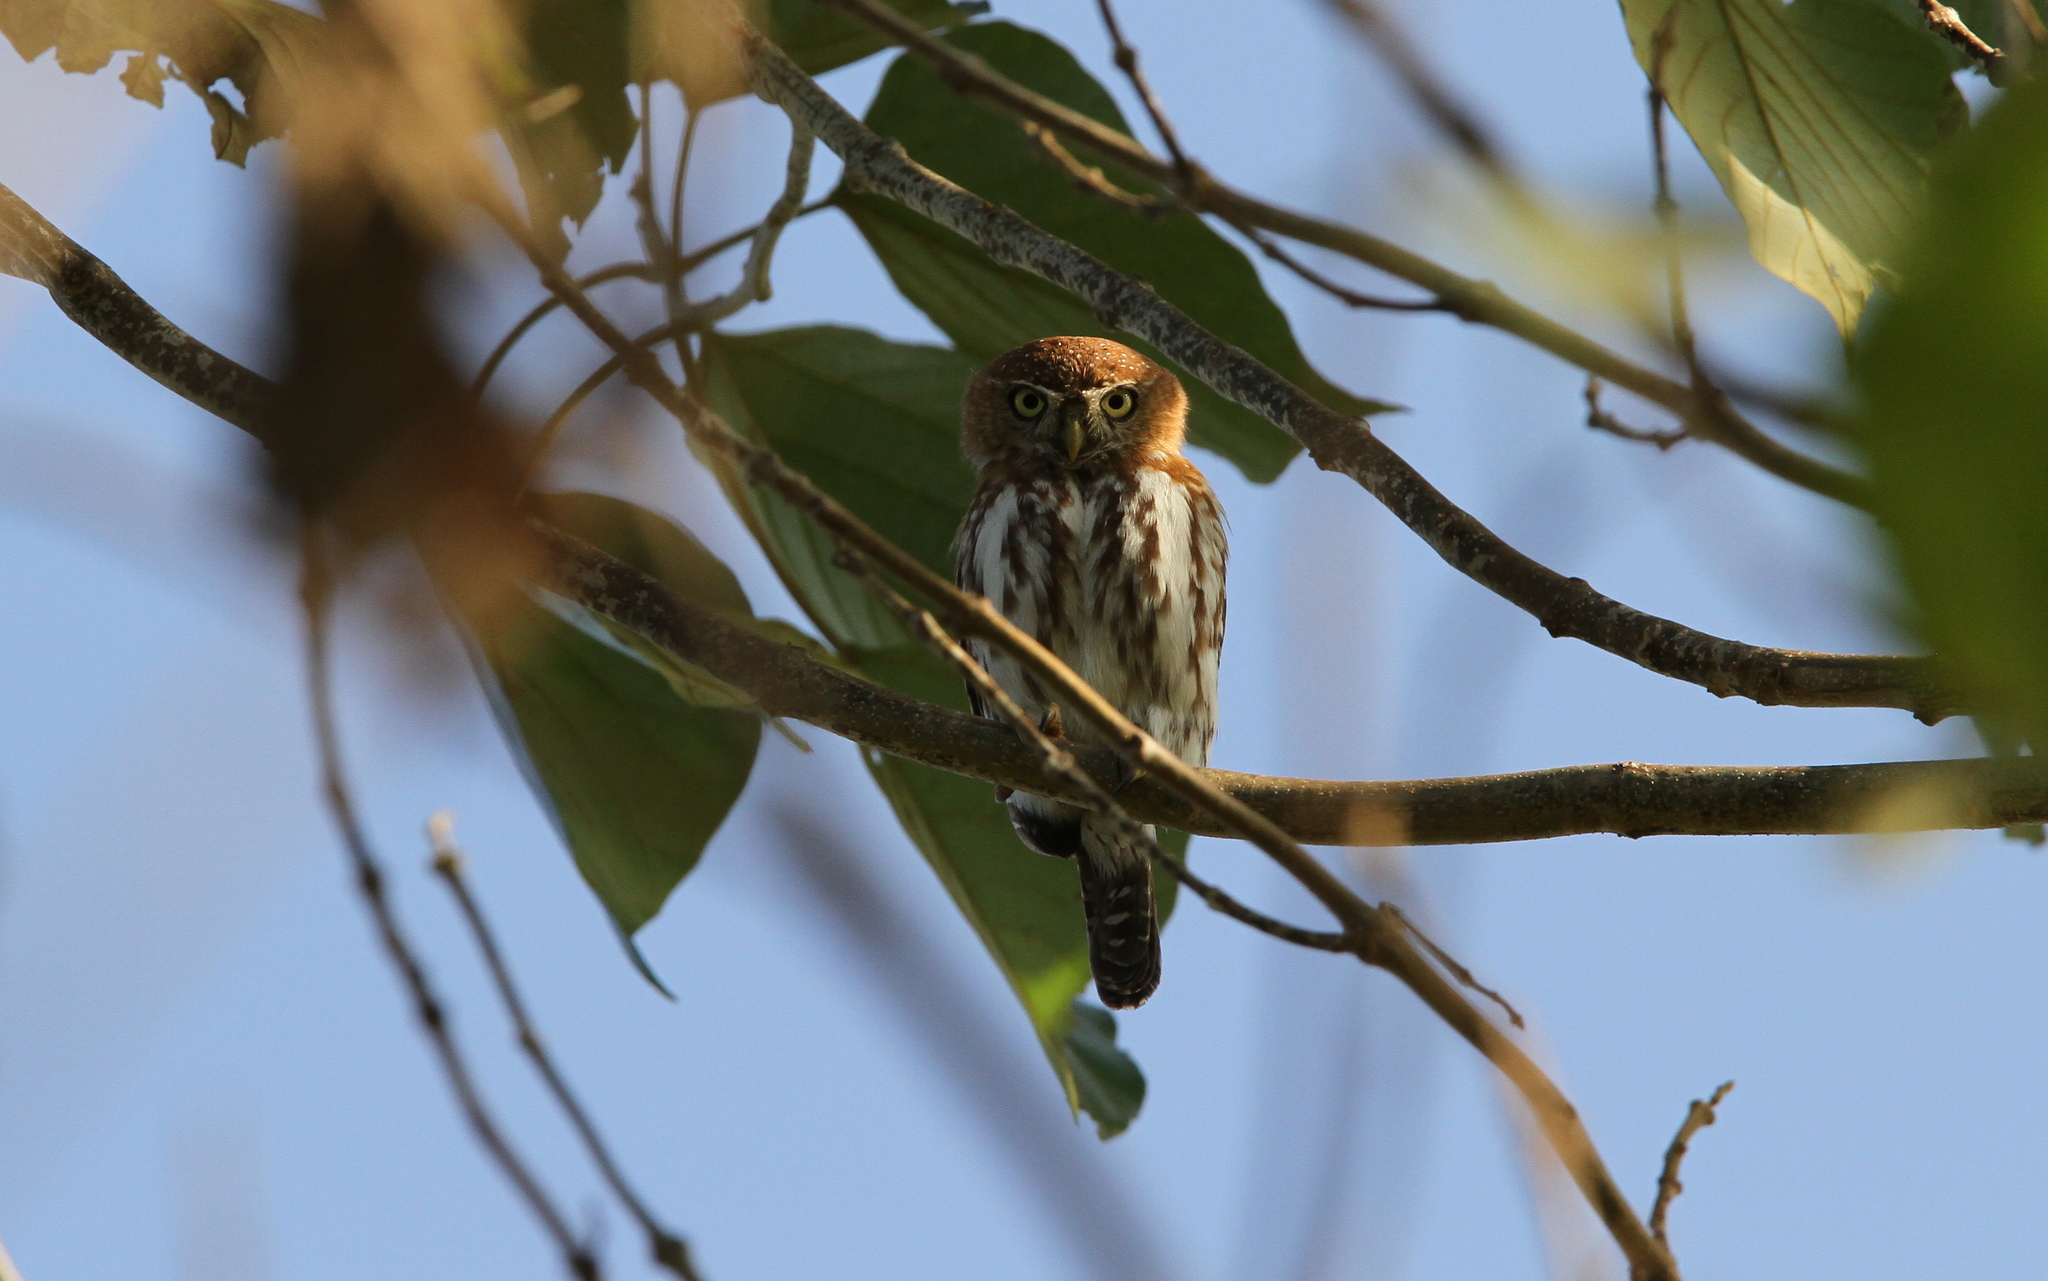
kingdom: Animalia
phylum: Chordata
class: Aves
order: Strigiformes
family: Strigidae
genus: Glaucidium
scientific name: Glaucidium perlatum
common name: Pearl-spotted owlet
